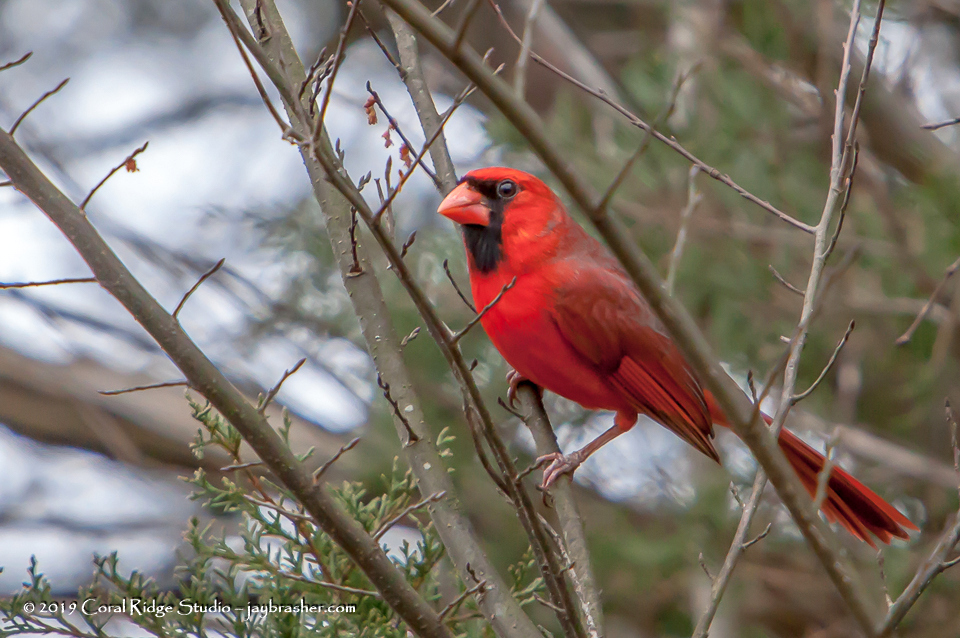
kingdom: Animalia
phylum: Chordata
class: Aves
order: Passeriformes
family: Cardinalidae
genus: Cardinalis
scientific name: Cardinalis cardinalis
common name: Northern cardinal
